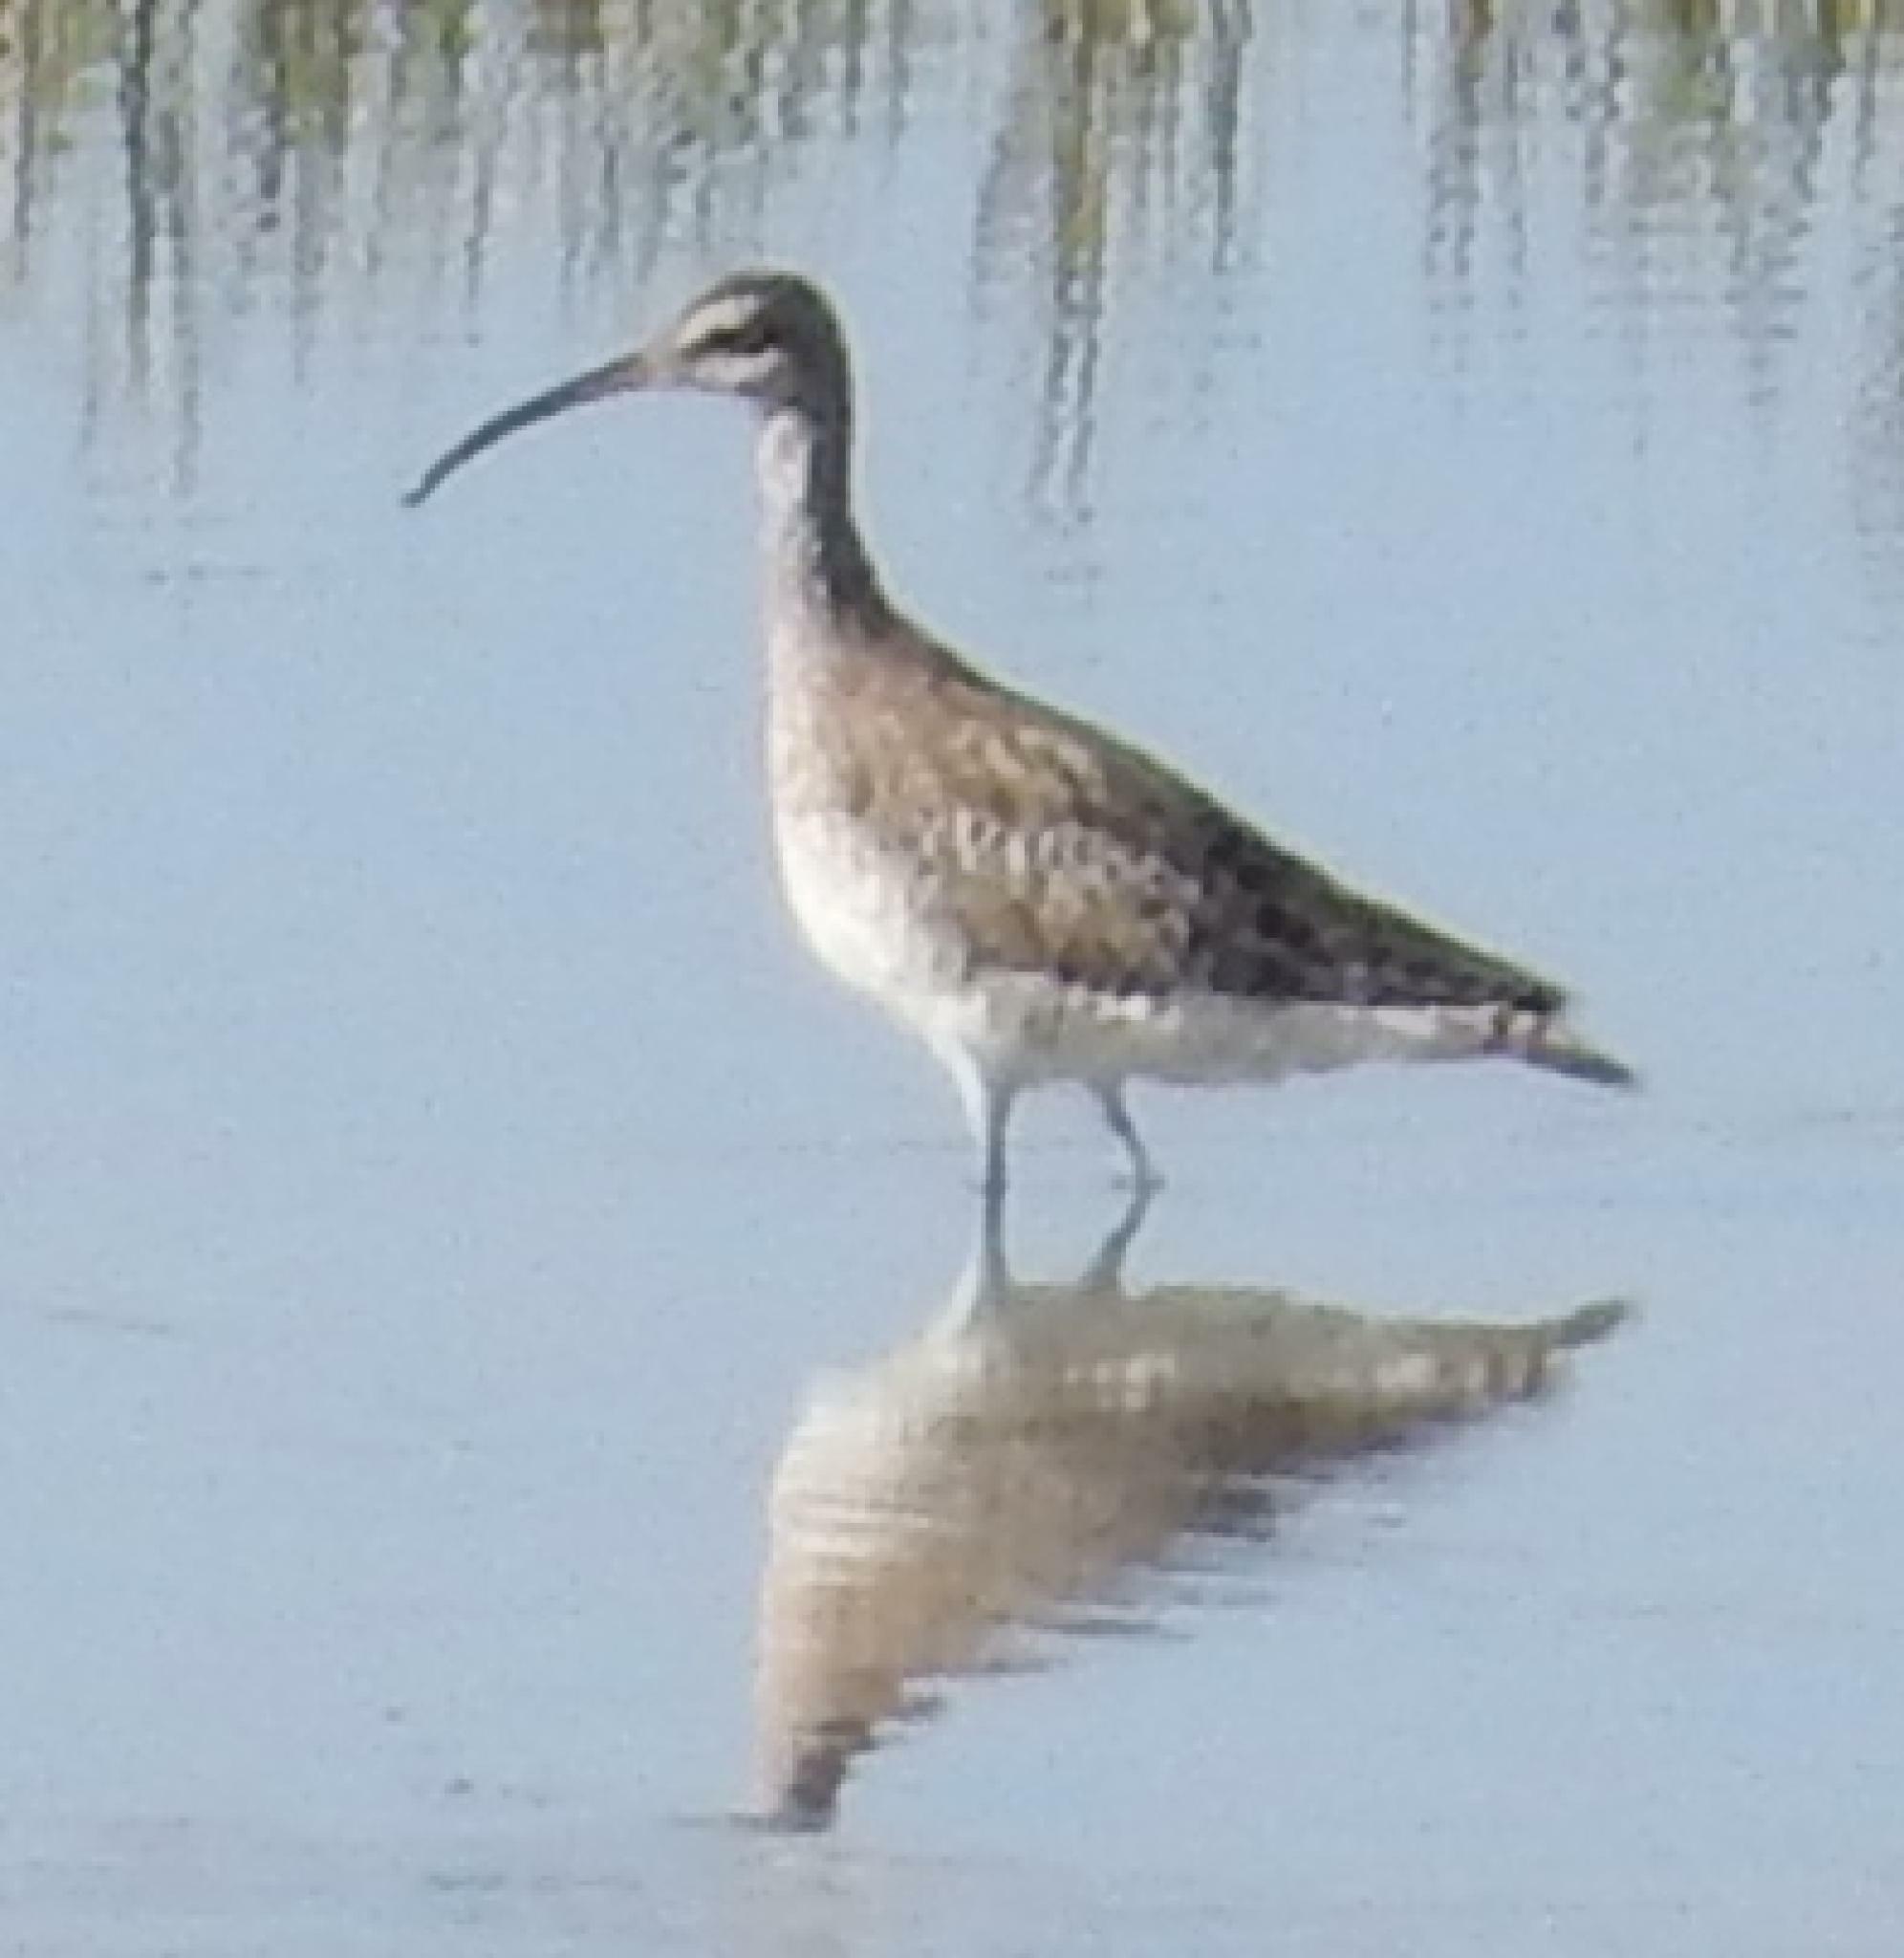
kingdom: Animalia
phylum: Chordata
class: Aves
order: Charadriiformes
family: Scolopacidae
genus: Numenius
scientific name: Numenius phaeopus
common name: Whimbrel
